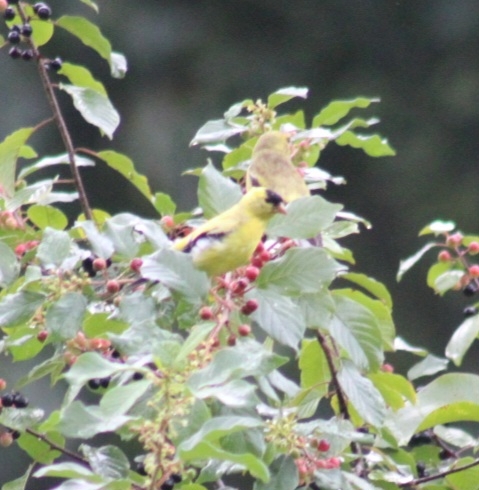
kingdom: Animalia
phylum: Chordata
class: Aves
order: Passeriformes
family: Fringillidae
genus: Spinus
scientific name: Spinus tristis
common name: American goldfinch
